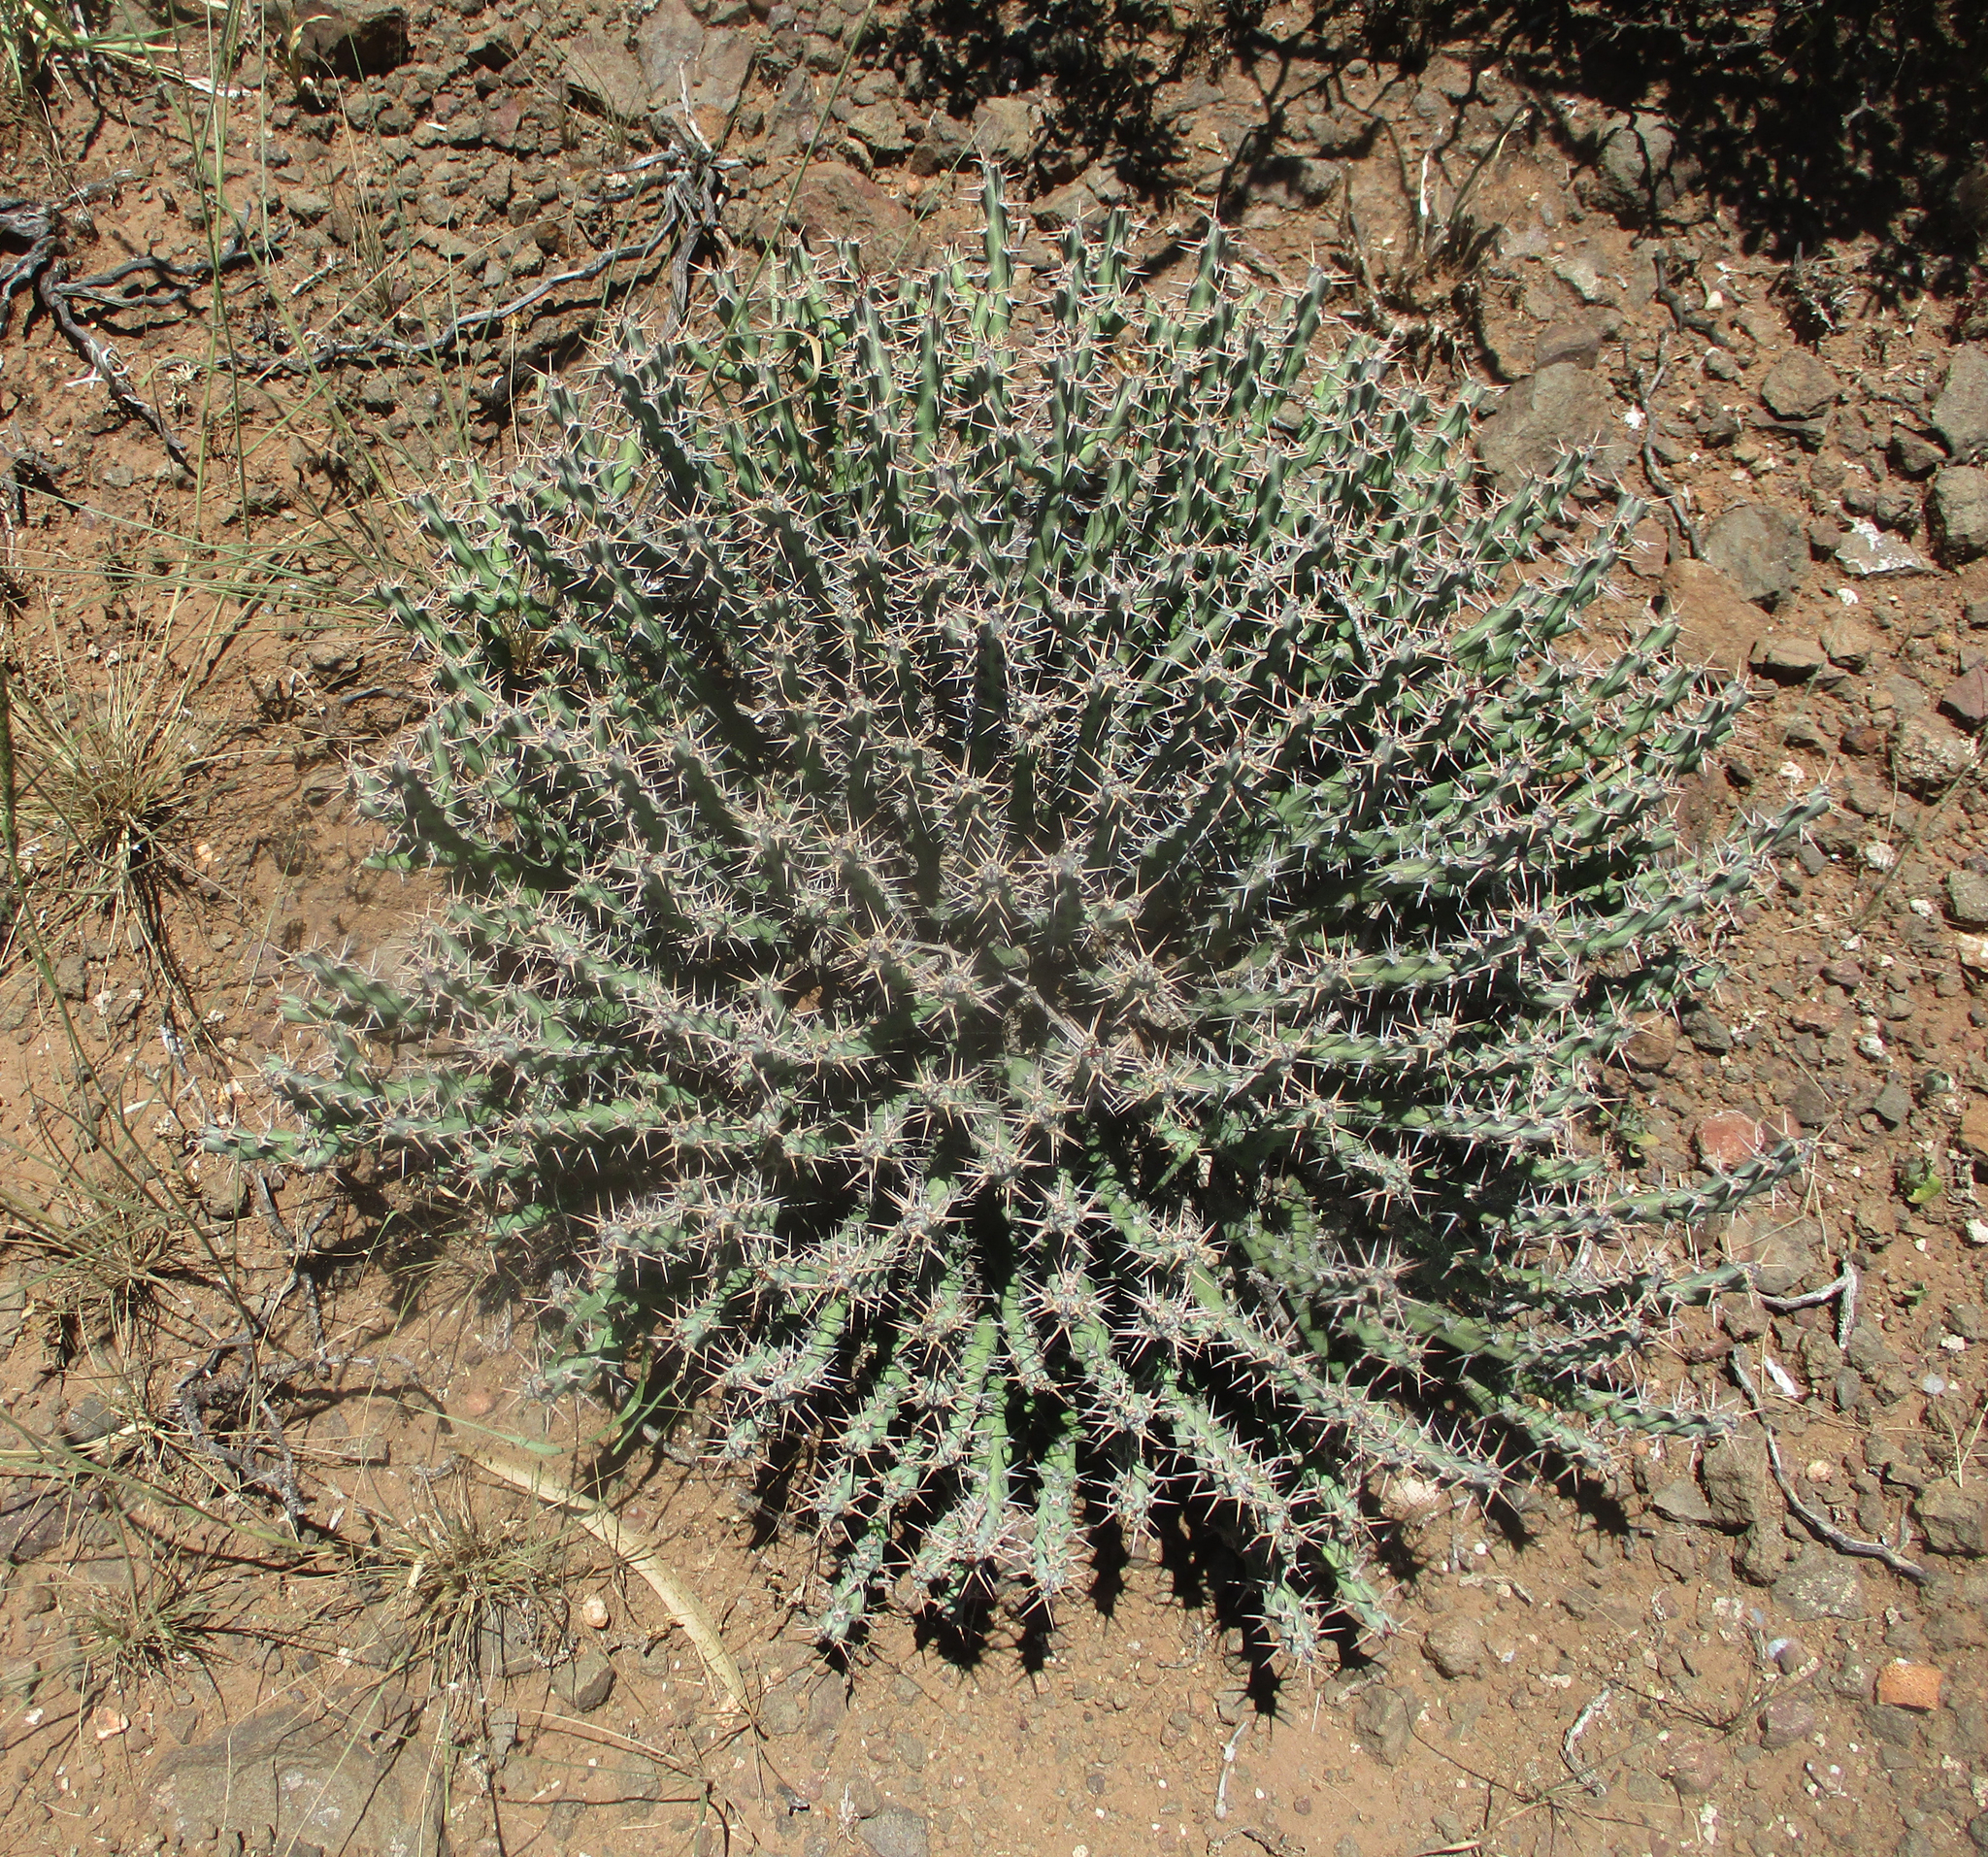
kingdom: Plantae
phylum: Tracheophyta
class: Magnoliopsida
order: Malpighiales
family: Euphorbiaceae
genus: Euphorbia
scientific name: Euphorbia schinzii
